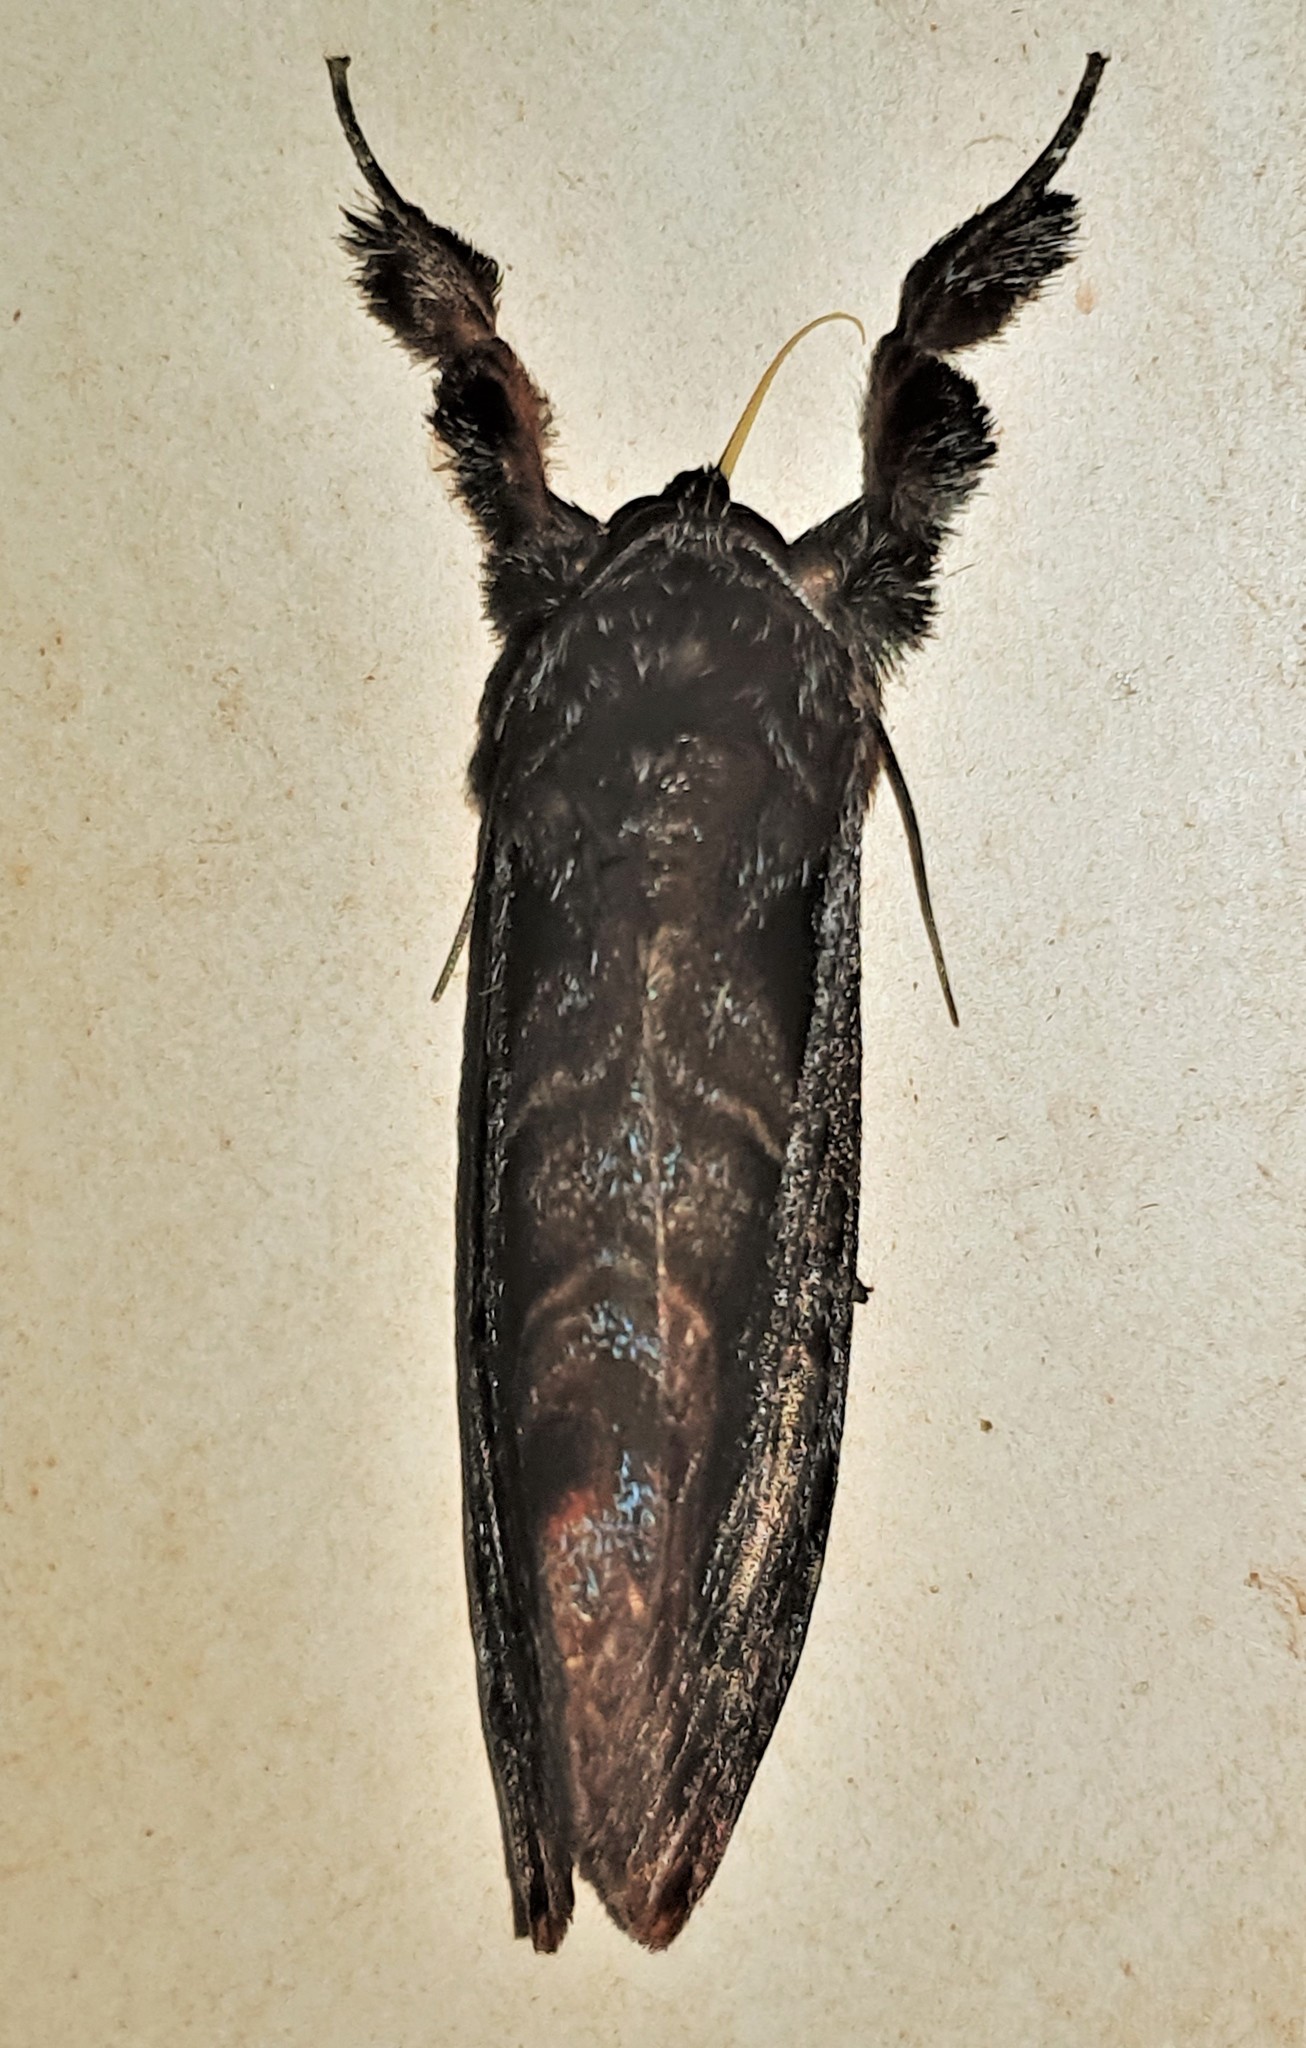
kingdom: Animalia
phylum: Arthropoda
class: Insecta
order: Lepidoptera
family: Noctuidae
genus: Darceta
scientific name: Darceta severa
